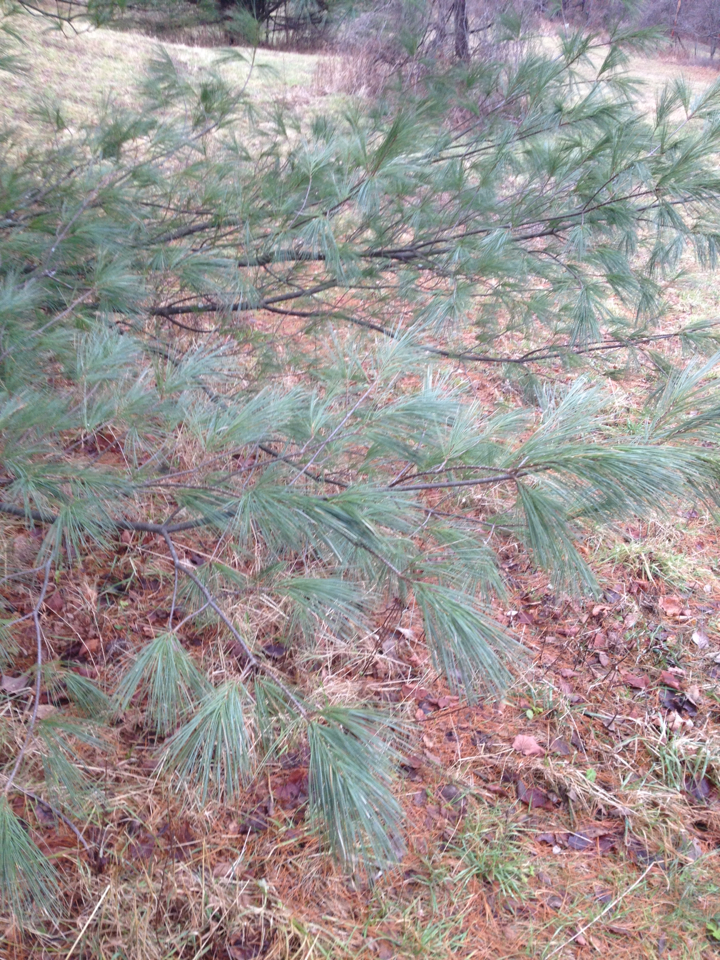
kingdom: Plantae
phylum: Tracheophyta
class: Pinopsida
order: Pinales
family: Pinaceae
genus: Pinus
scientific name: Pinus strobus
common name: Weymouth pine
